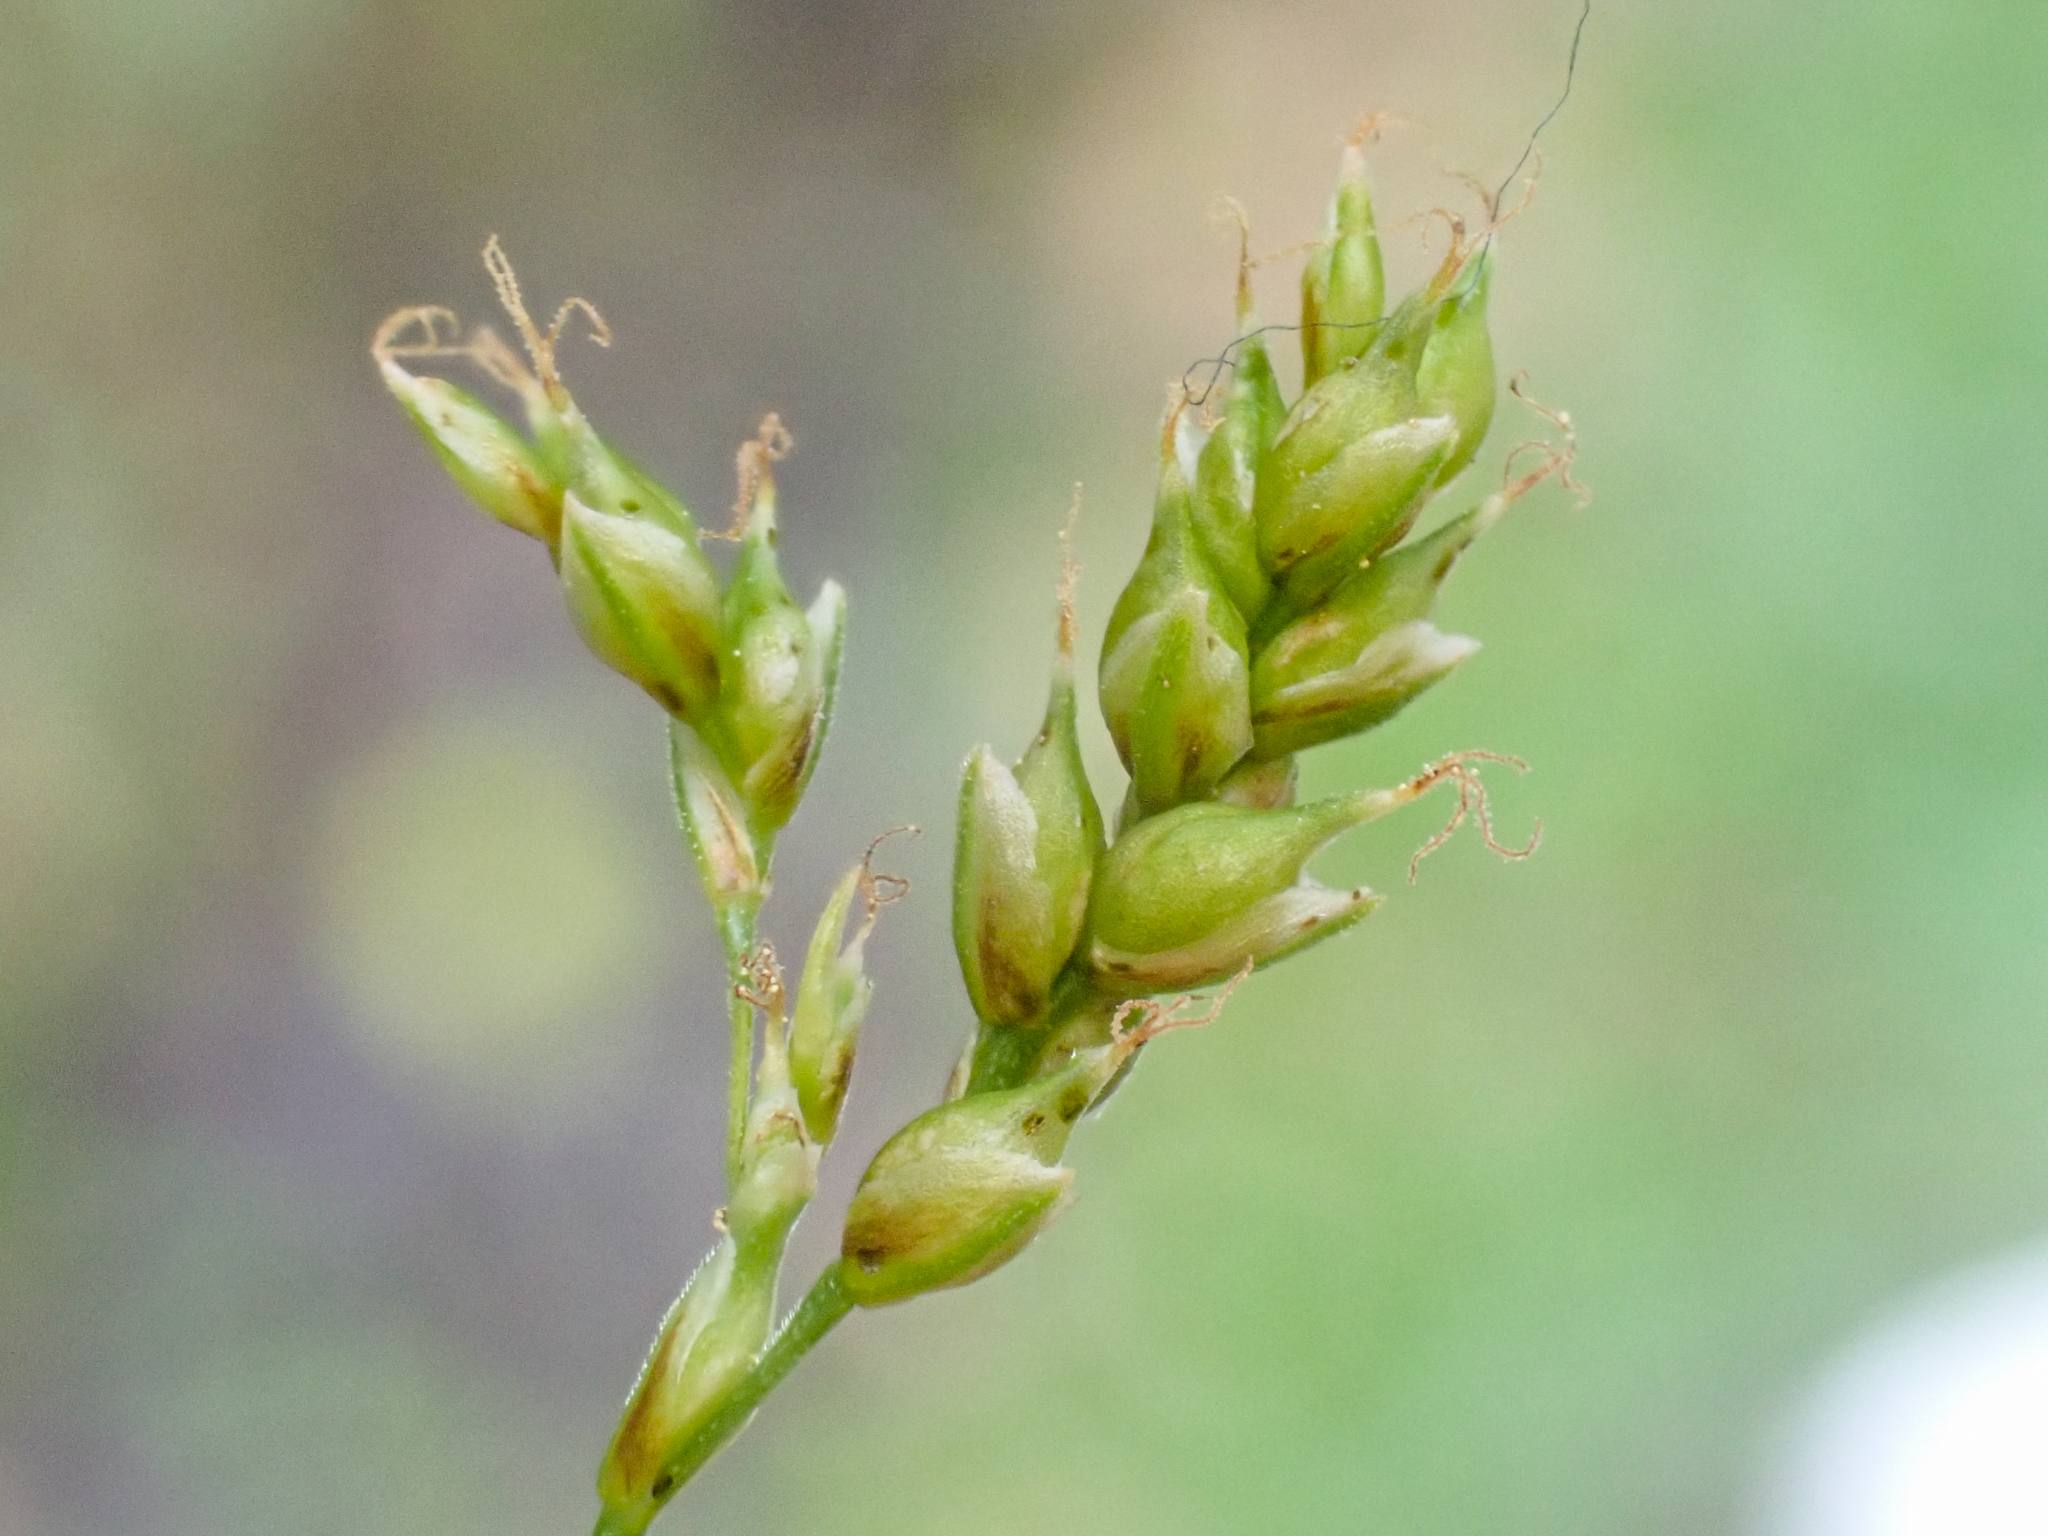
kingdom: Plantae
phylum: Tracheophyta
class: Liliopsida
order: Poales
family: Cyperaceae
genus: Carex
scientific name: Carex capillaris
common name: Hair sedge
